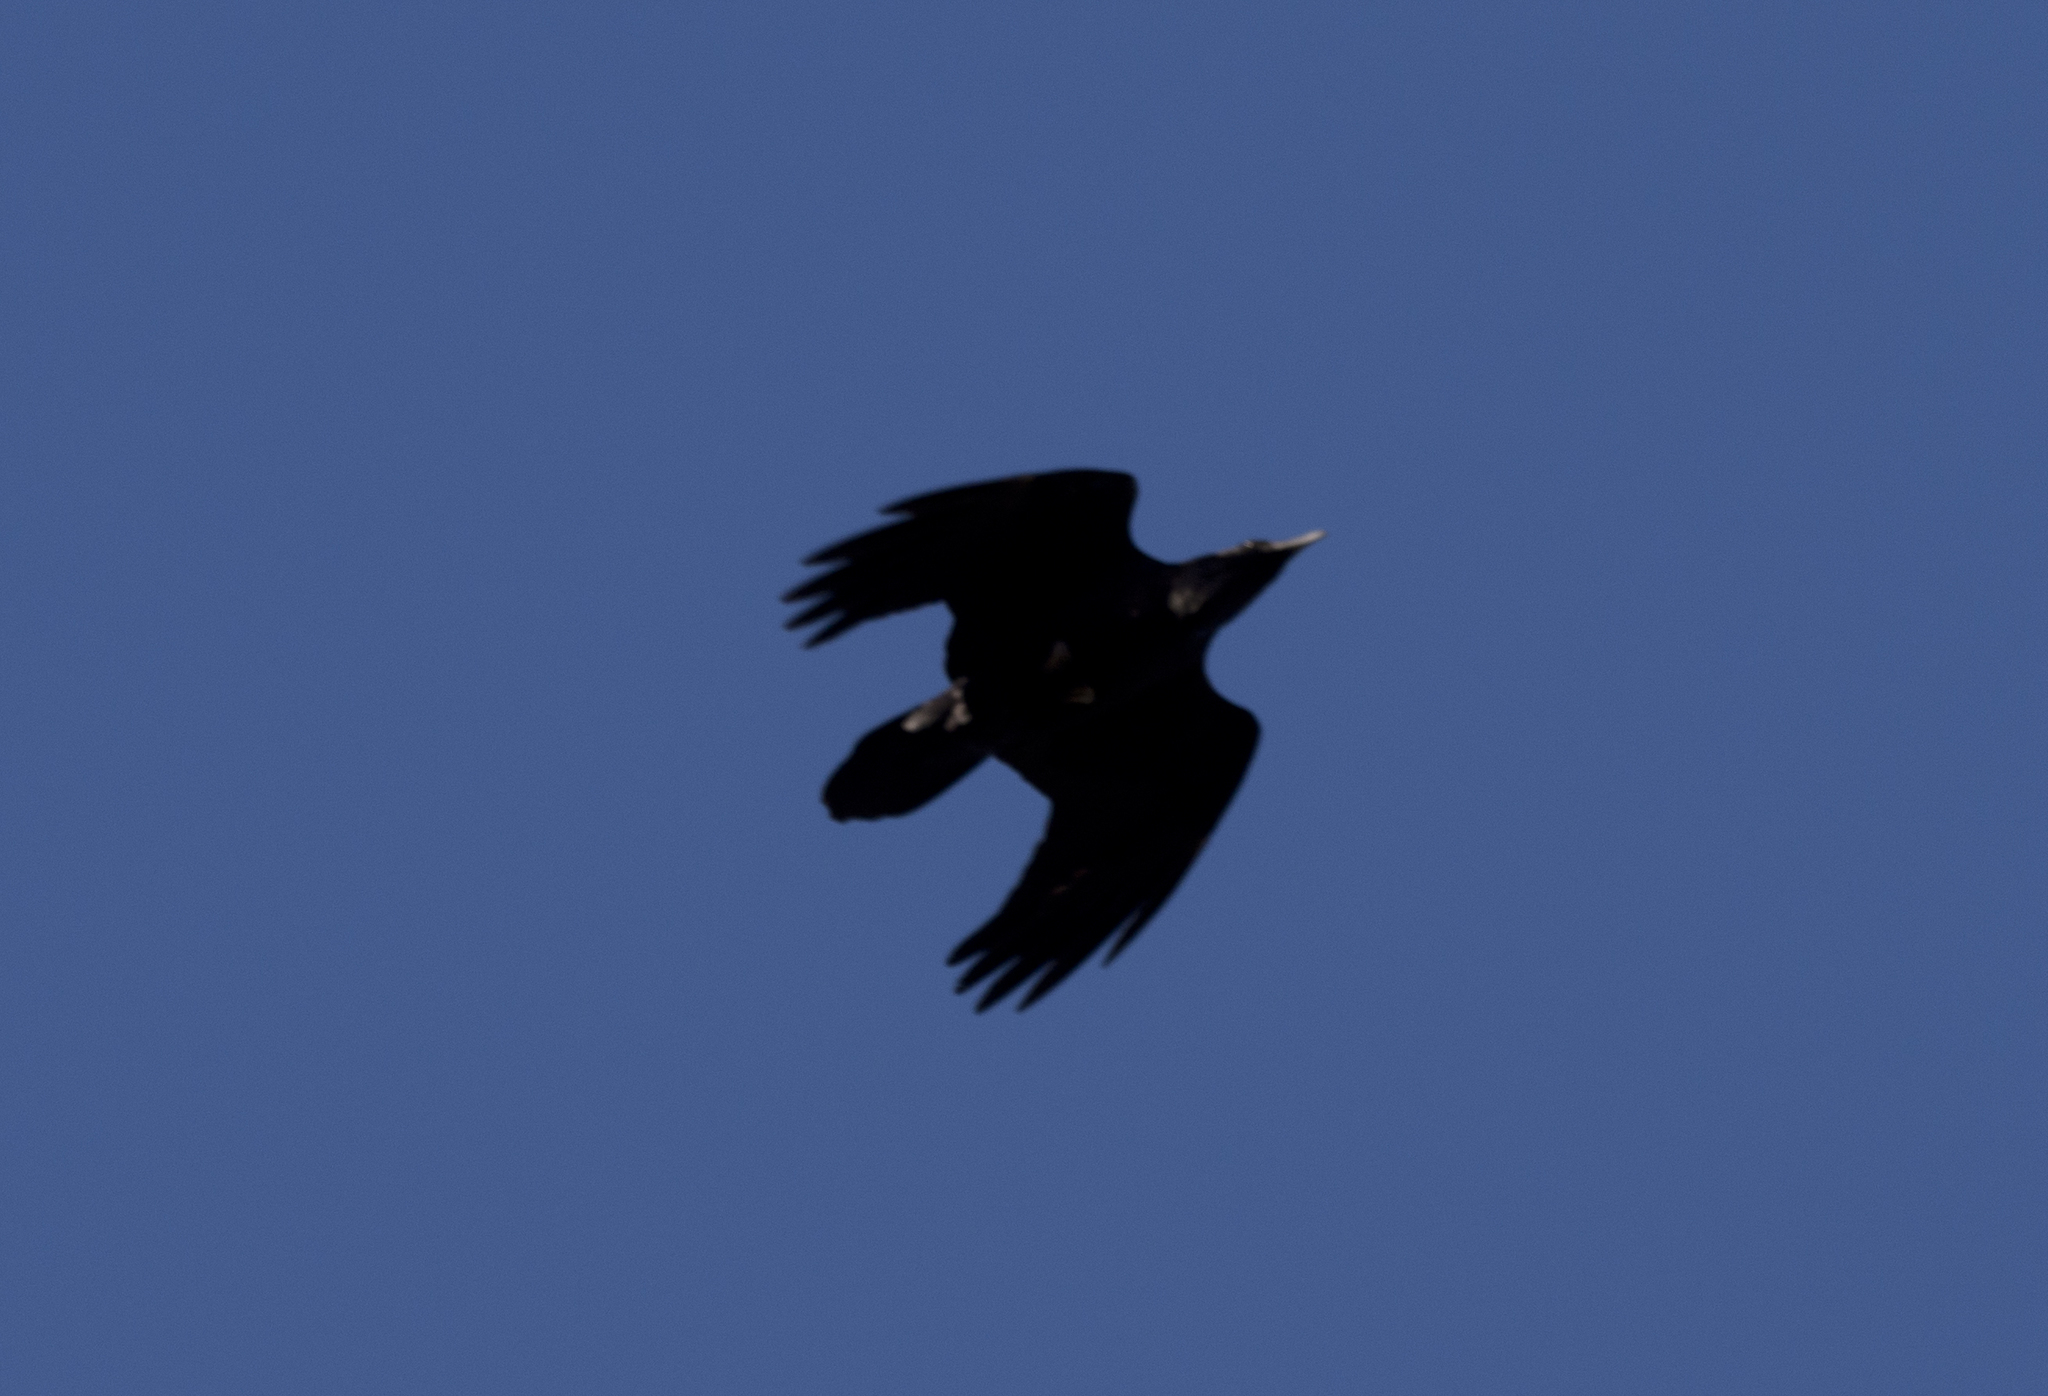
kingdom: Animalia
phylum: Chordata
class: Aves
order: Passeriformes
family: Corvidae
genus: Corvus
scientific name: Corvus corax
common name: Common raven
